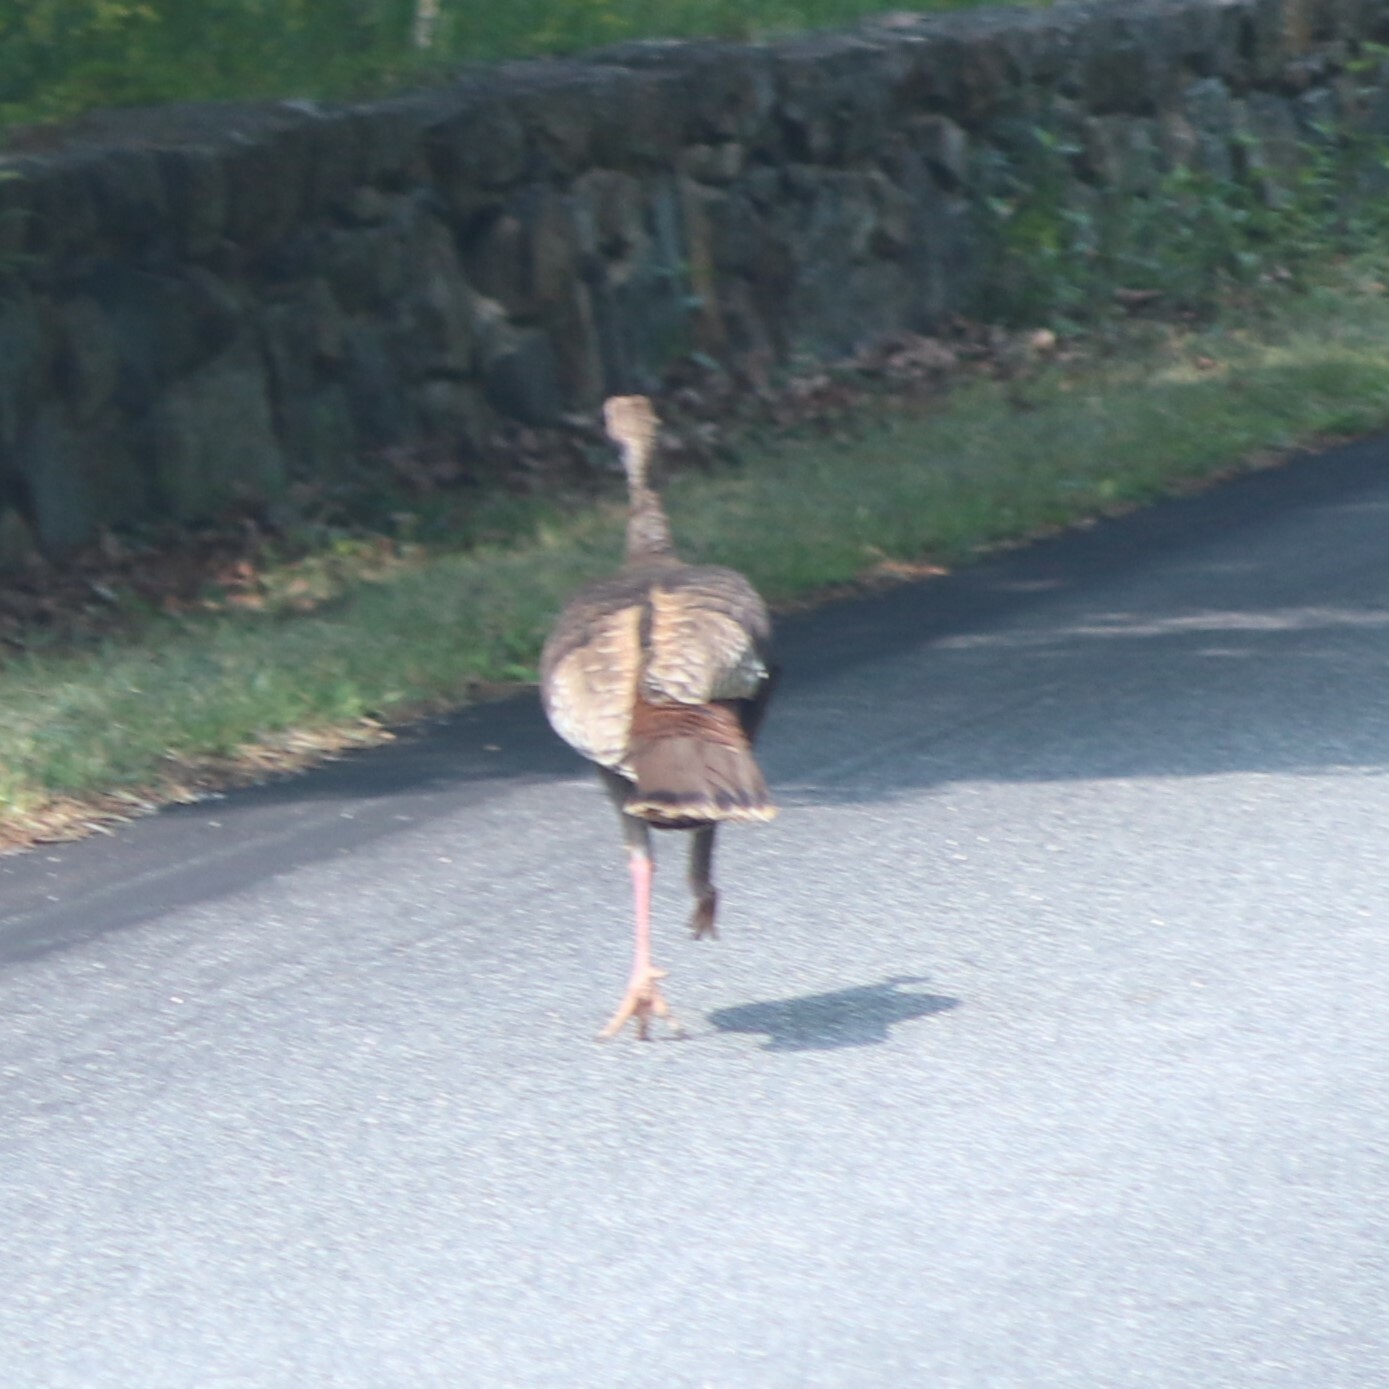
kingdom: Animalia
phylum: Chordata
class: Aves
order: Galliformes
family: Phasianidae
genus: Meleagris
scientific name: Meleagris gallopavo
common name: Wild turkey
